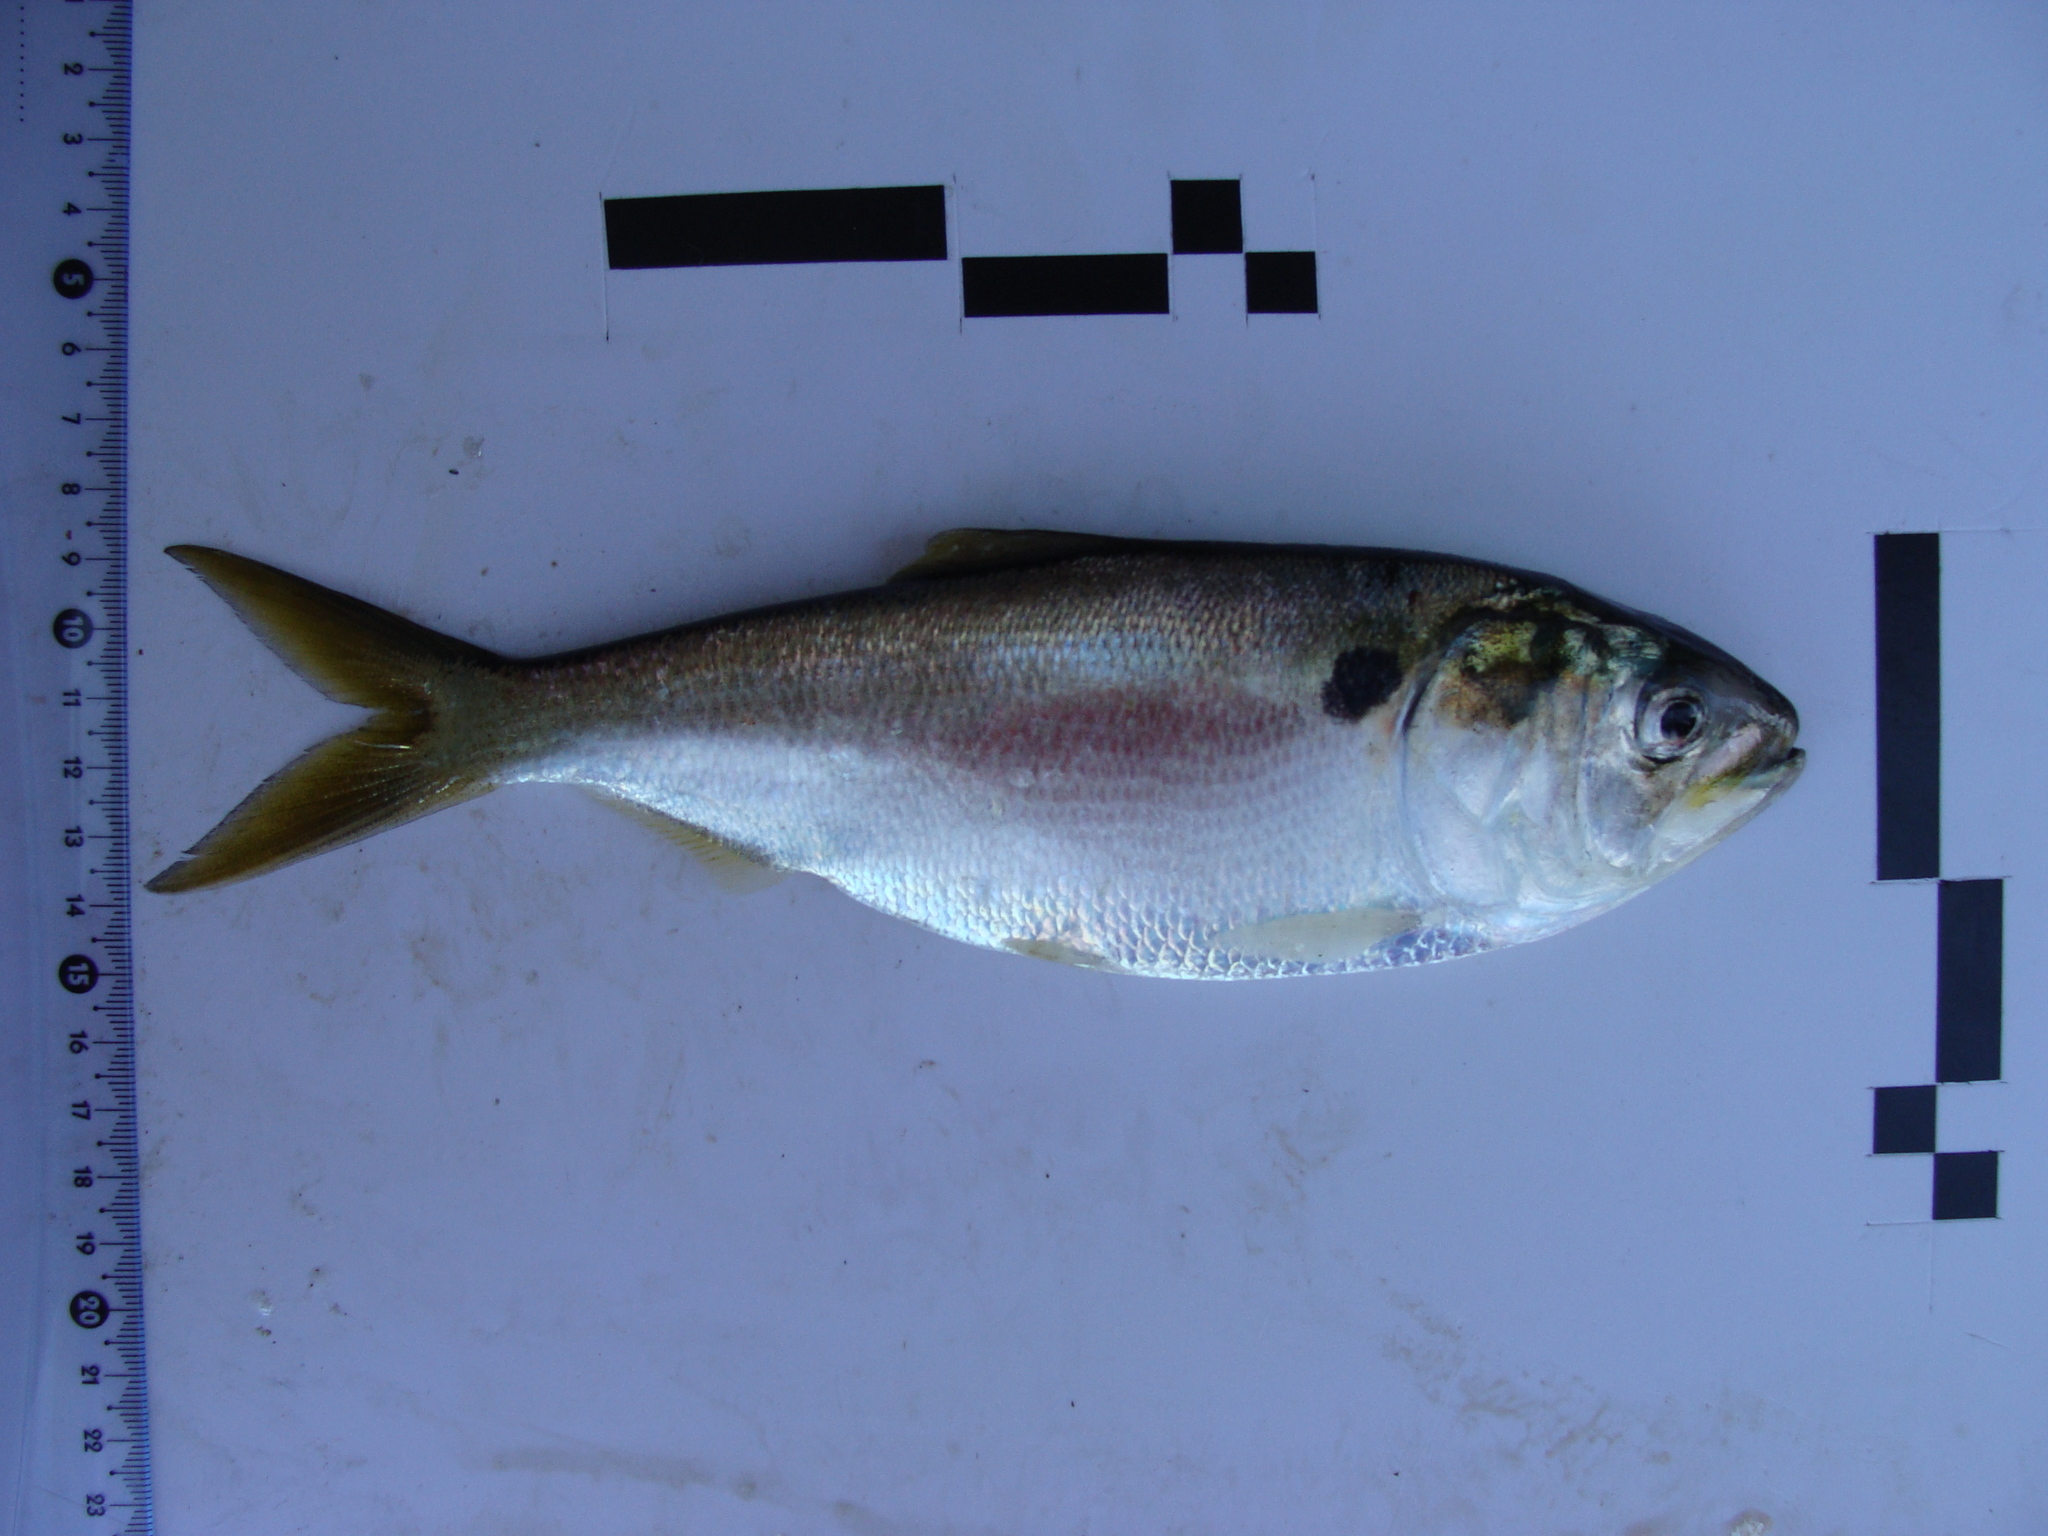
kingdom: Animalia
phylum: Chordata
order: Clupeiformes
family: Clupeidae
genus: Brevoortia
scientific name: Brevoortia aurea
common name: Brazilian menhaden
